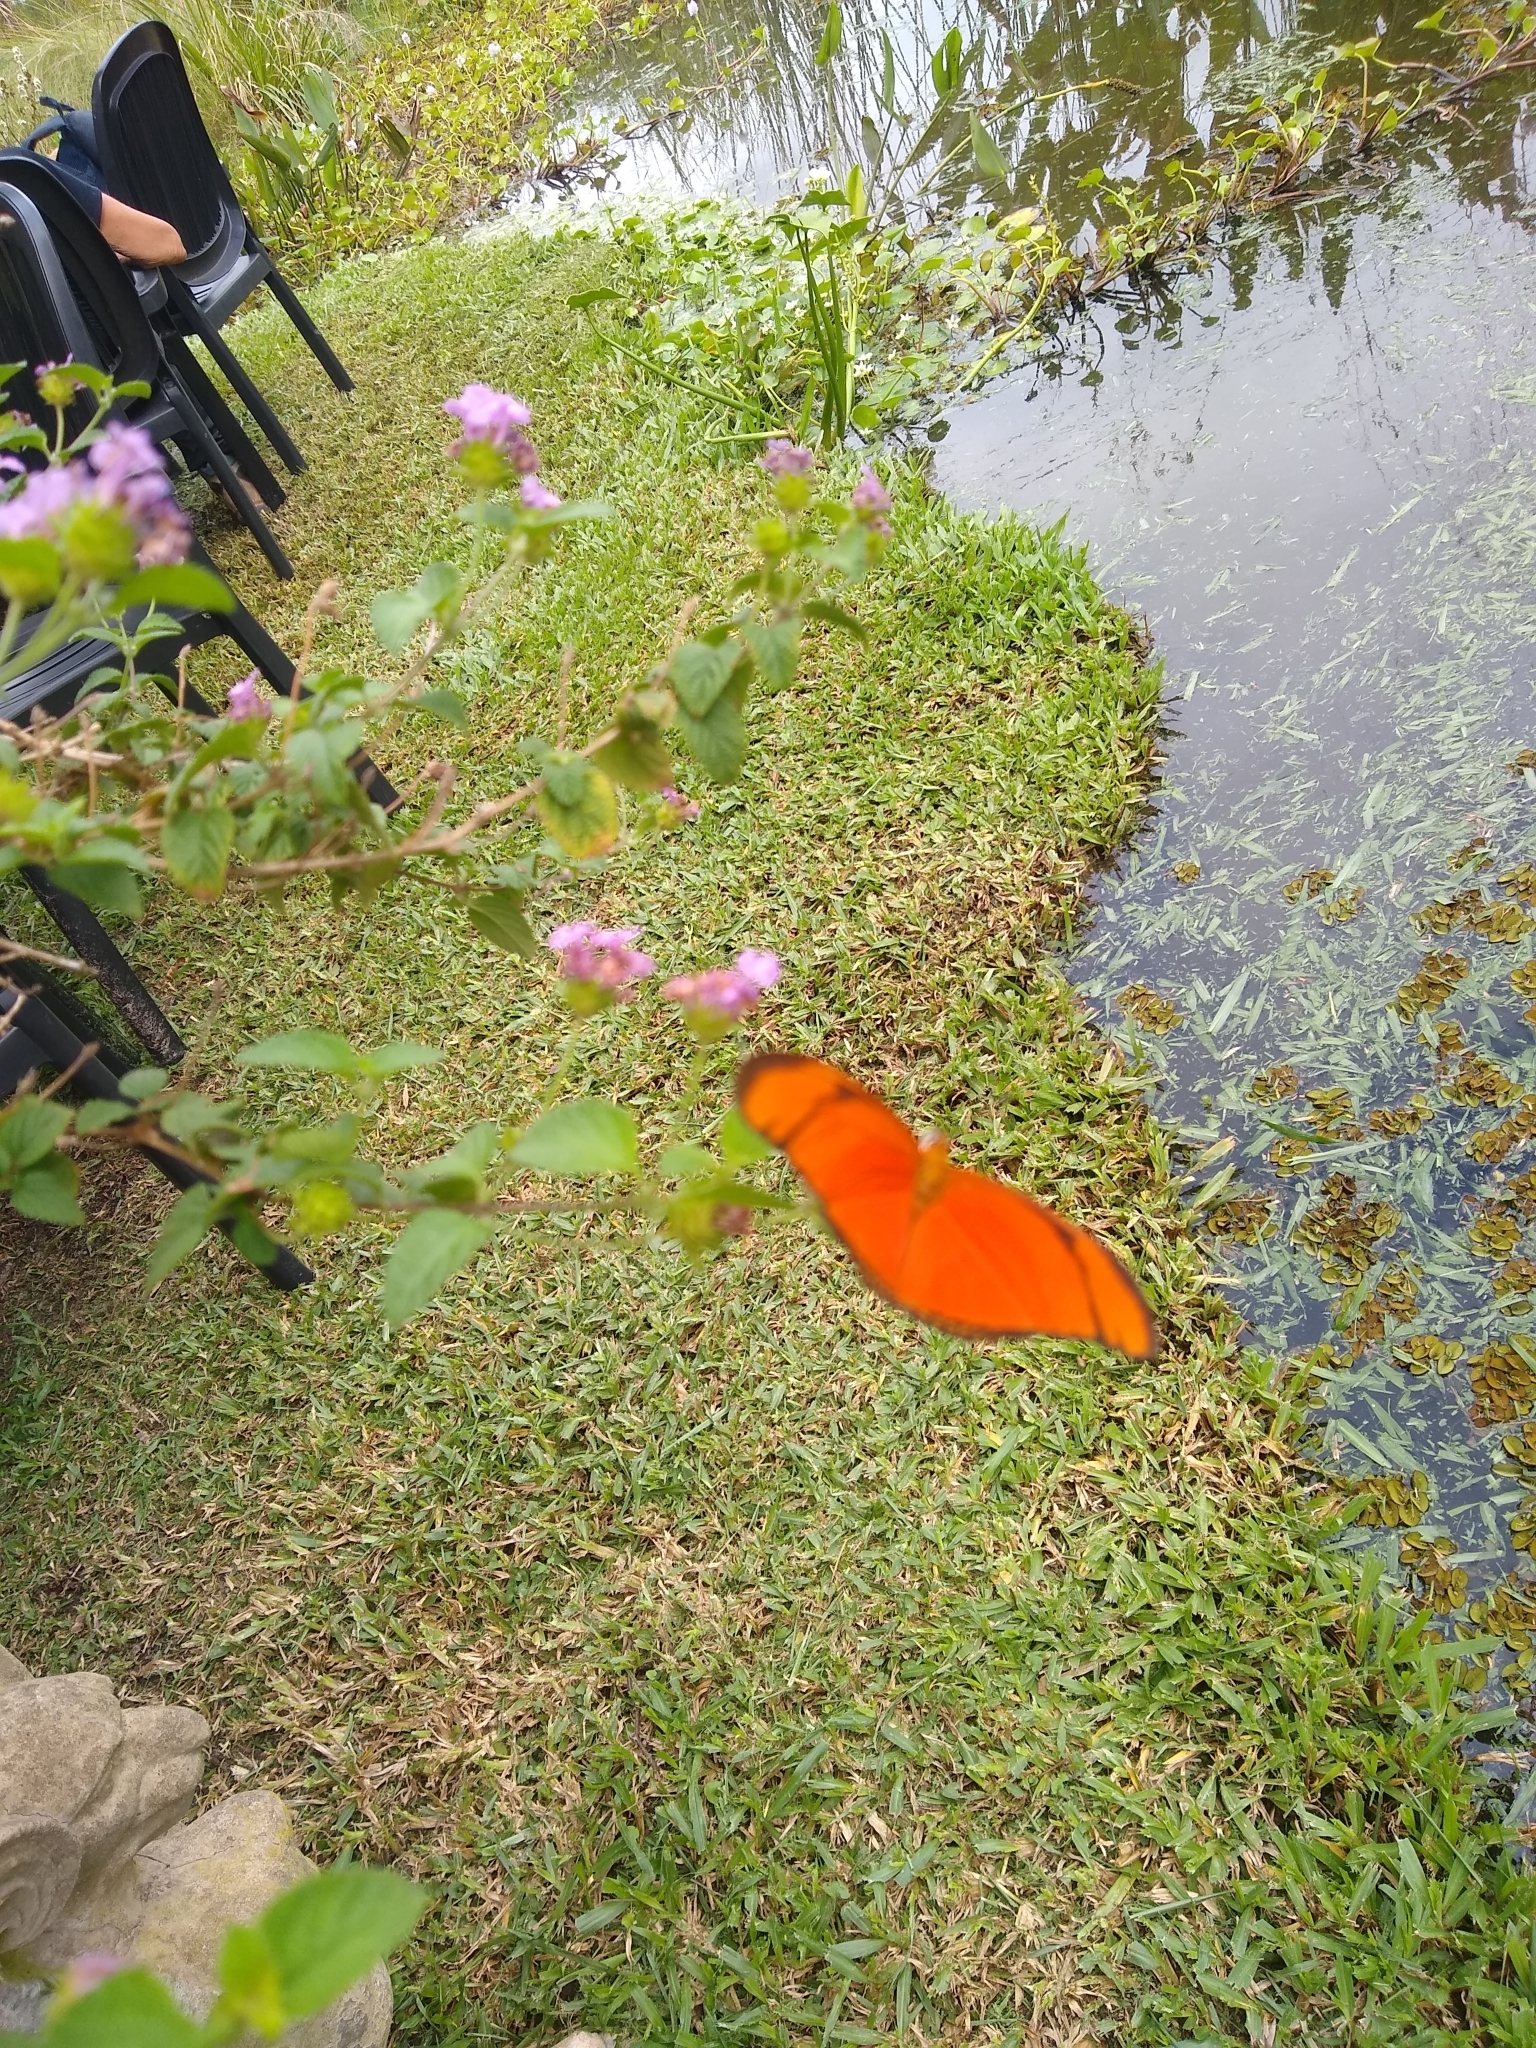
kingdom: Animalia
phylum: Arthropoda
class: Insecta
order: Lepidoptera
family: Nymphalidae
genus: Dryas
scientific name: Dryas iulia
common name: Flambeau
